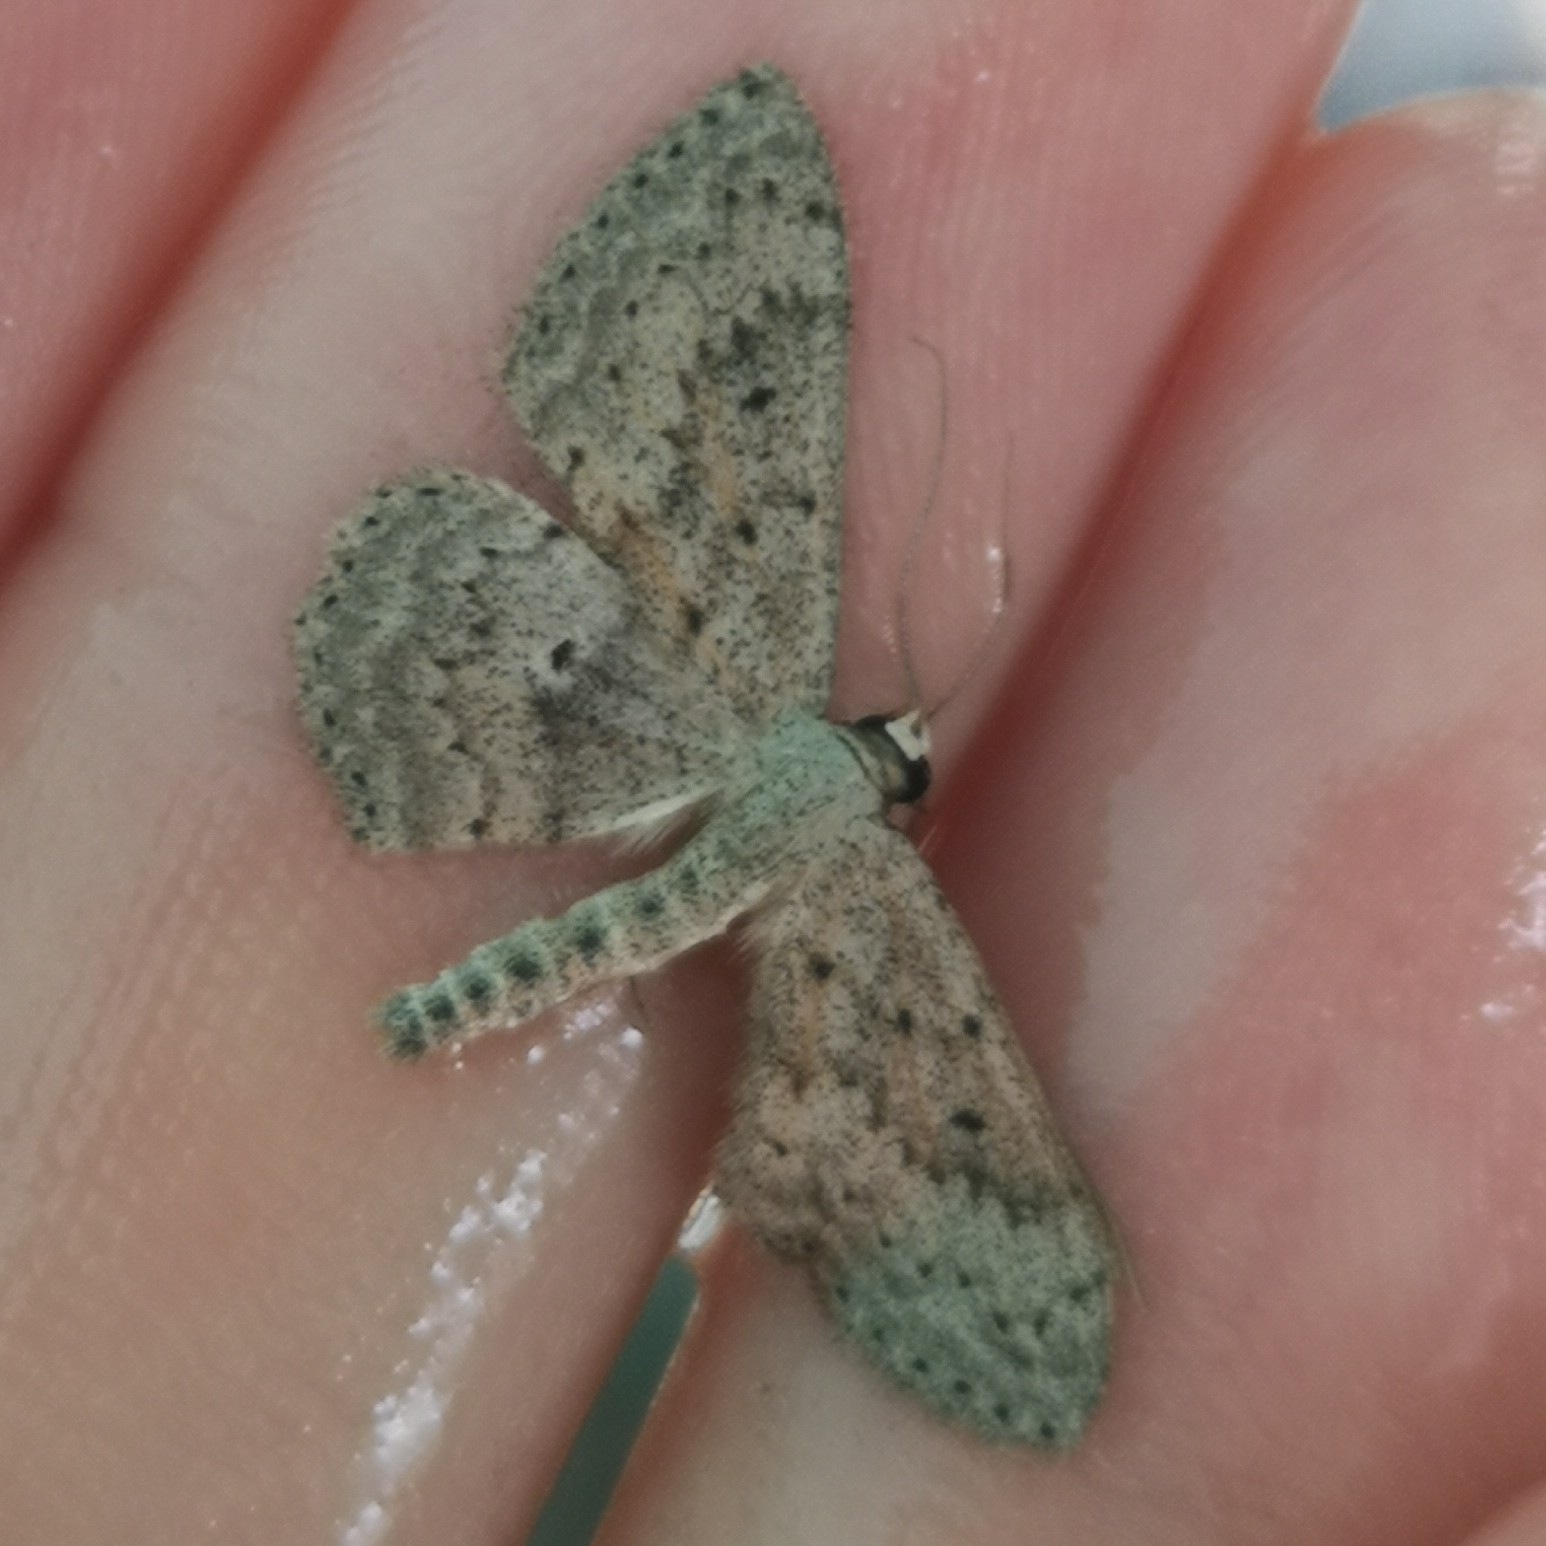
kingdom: Animalia
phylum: Arthropoda
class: Insecta
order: Lepidoptera
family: Geometridae
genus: Scopula
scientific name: Scopula guancharia
